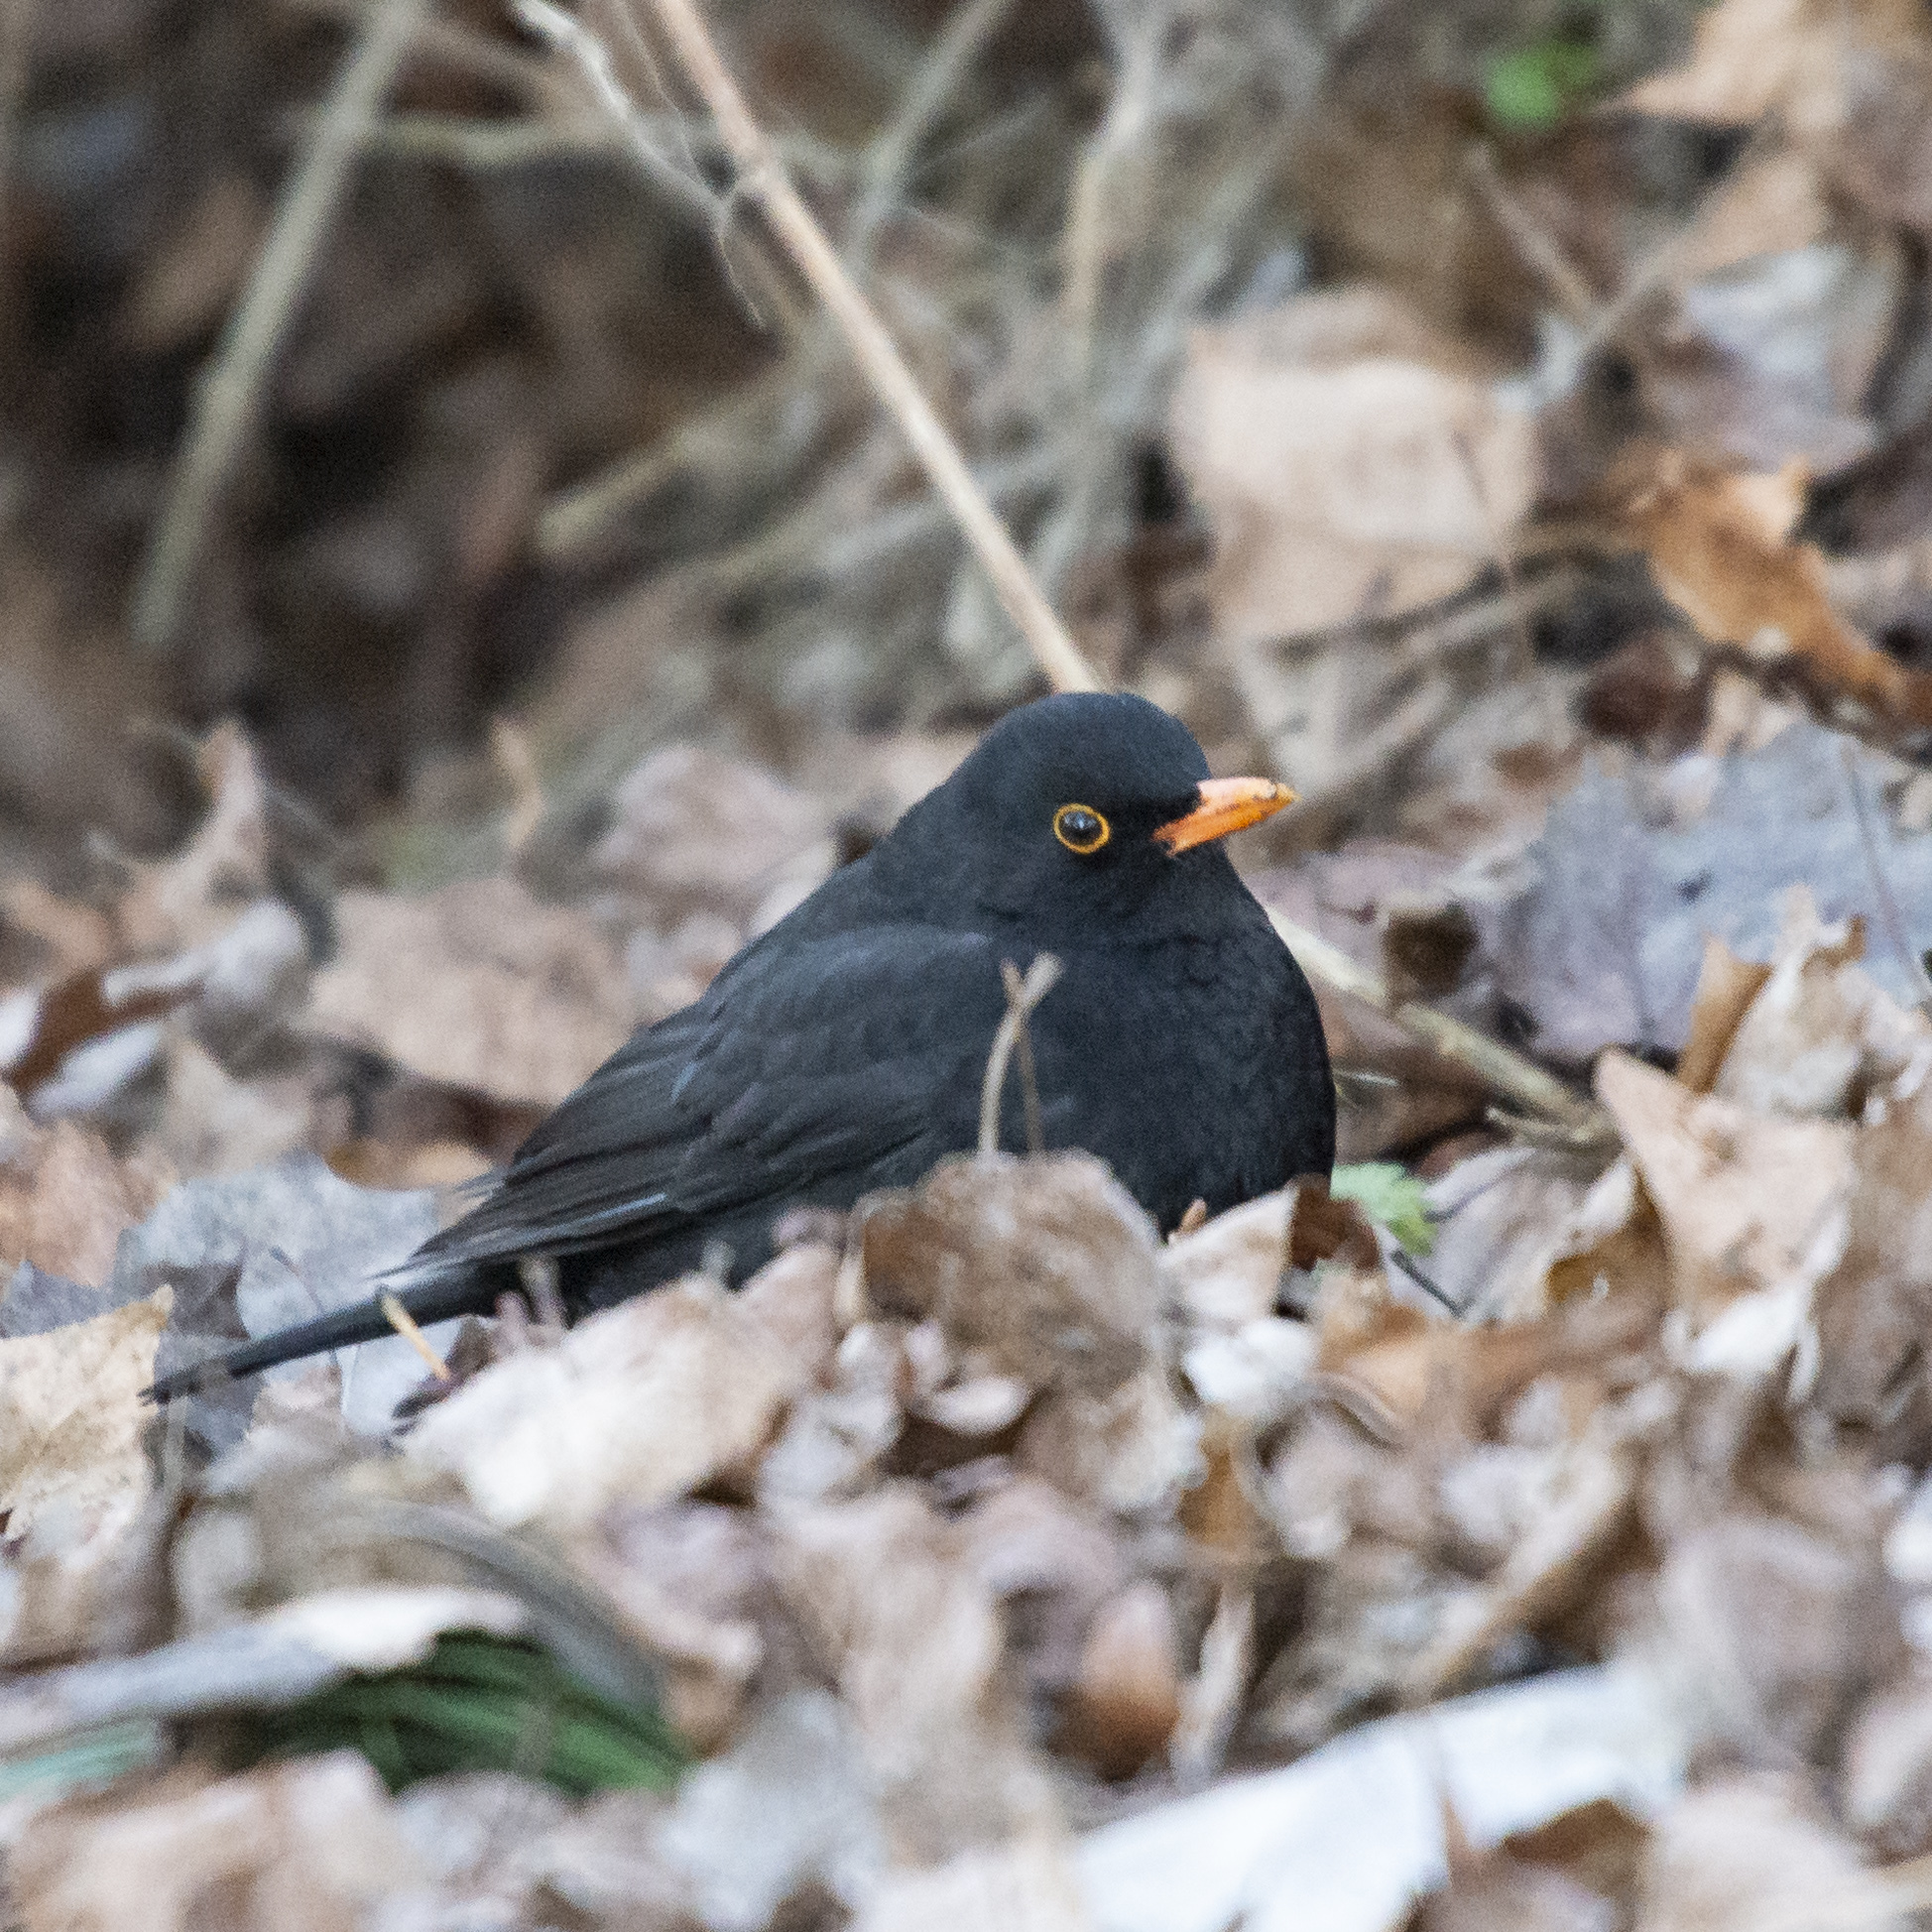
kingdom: Animalia
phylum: Chordata
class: Aves
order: Passeriformes
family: Turdidae
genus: Turdus
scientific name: Turdus merula
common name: Common blackbird
